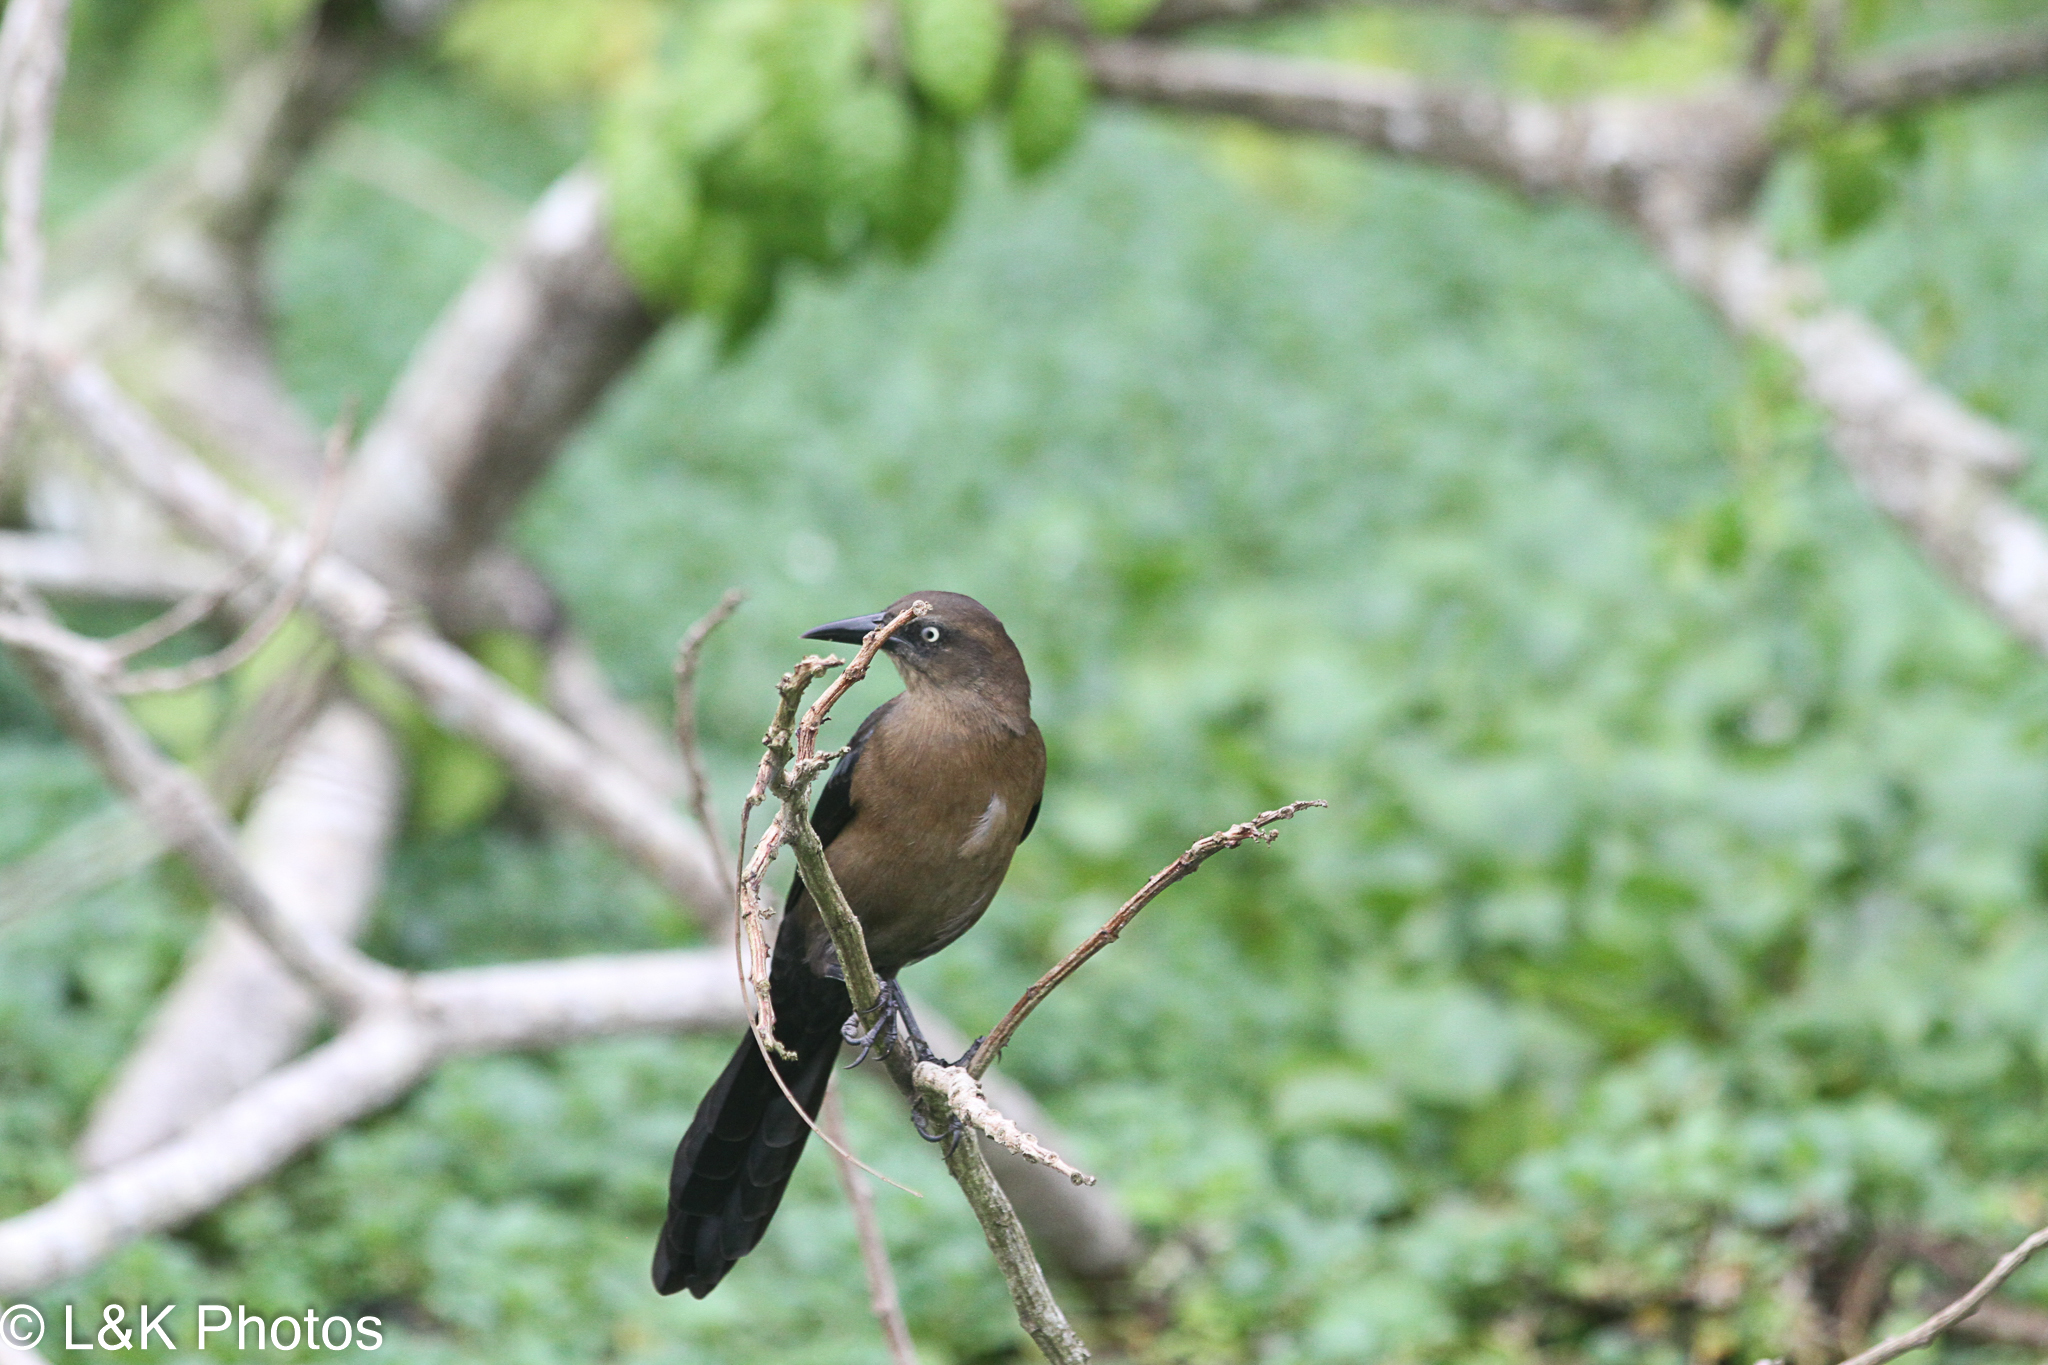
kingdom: Animalia
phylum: Chordata
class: Aves
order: Passeriformes
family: Icteridae
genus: Quiscalus
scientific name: Quiscalus mexicanus
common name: Great-tailed grackle
